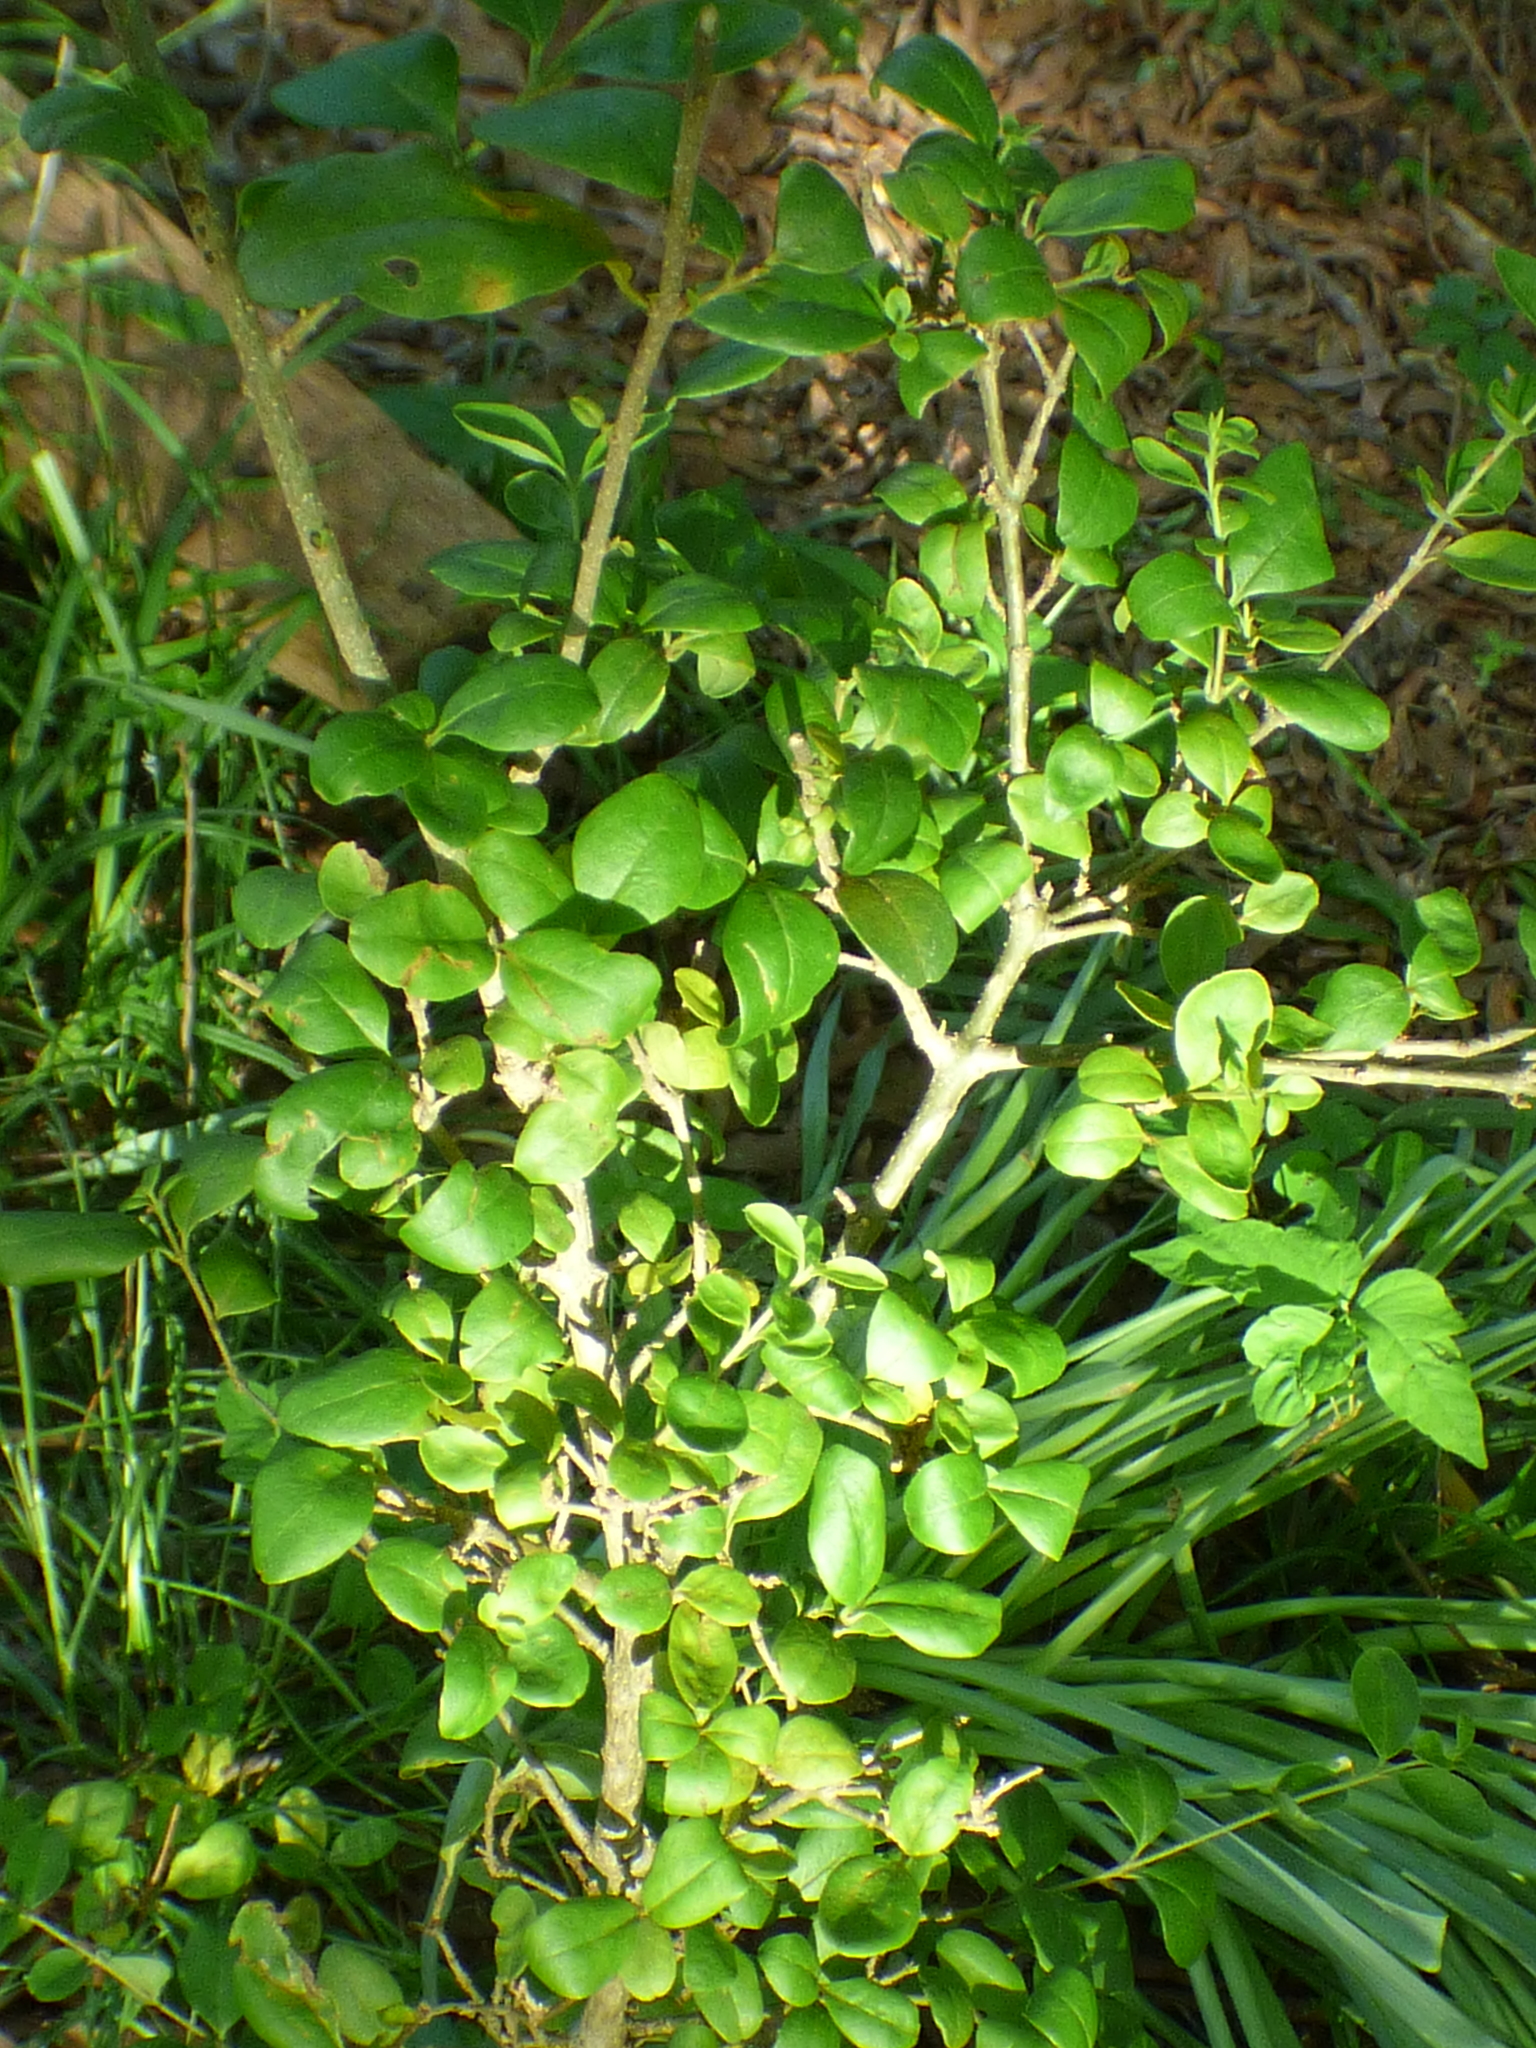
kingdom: Plantae
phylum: Tracheophyta
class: Magnoliopsida
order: Lamiales
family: Oleaceae
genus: Ligustrum
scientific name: Ligustrum sinense
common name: Chinese privet
